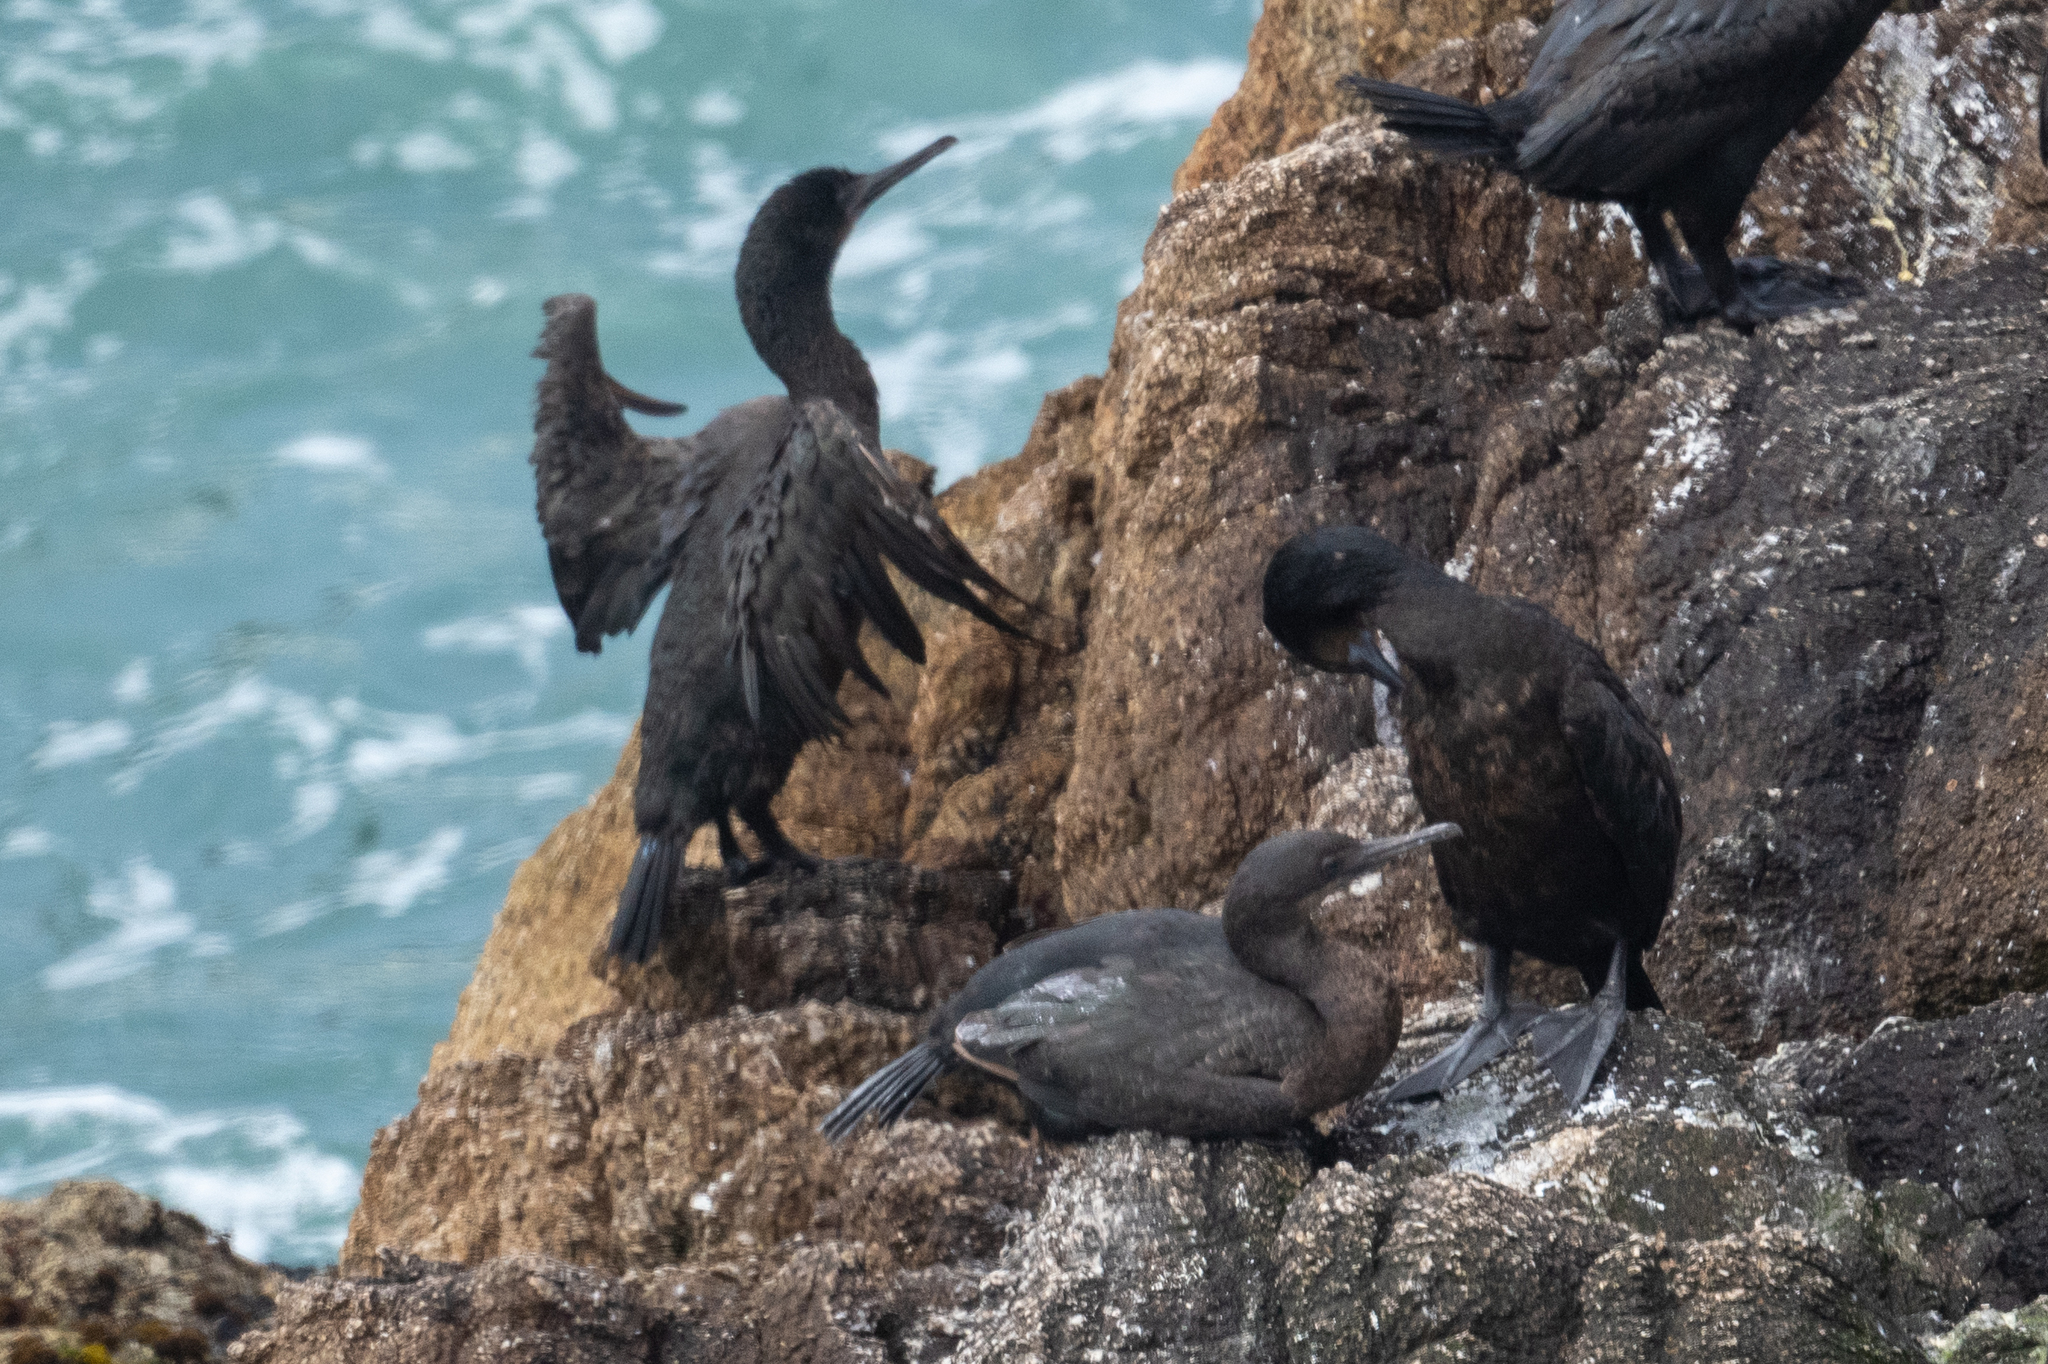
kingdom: Animalia
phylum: Chordata
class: Aves
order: Suliformes
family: Phalacrocoracidae
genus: Urile
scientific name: Urile penicillatus
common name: Brandt's cormorant
